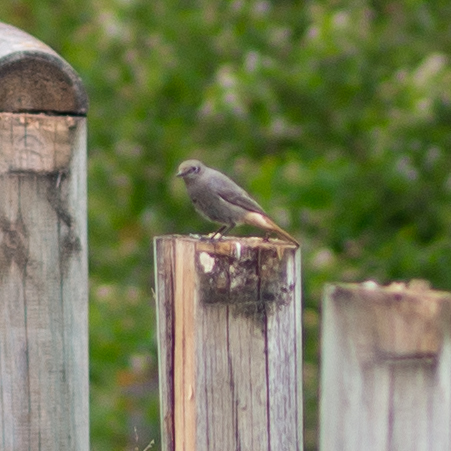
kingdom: Animalia
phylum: Chordata
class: Aves
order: Passeriformes
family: Muscicapidae
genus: Phoenicurus
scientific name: Phoenicurus ochruros
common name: Black redstart
